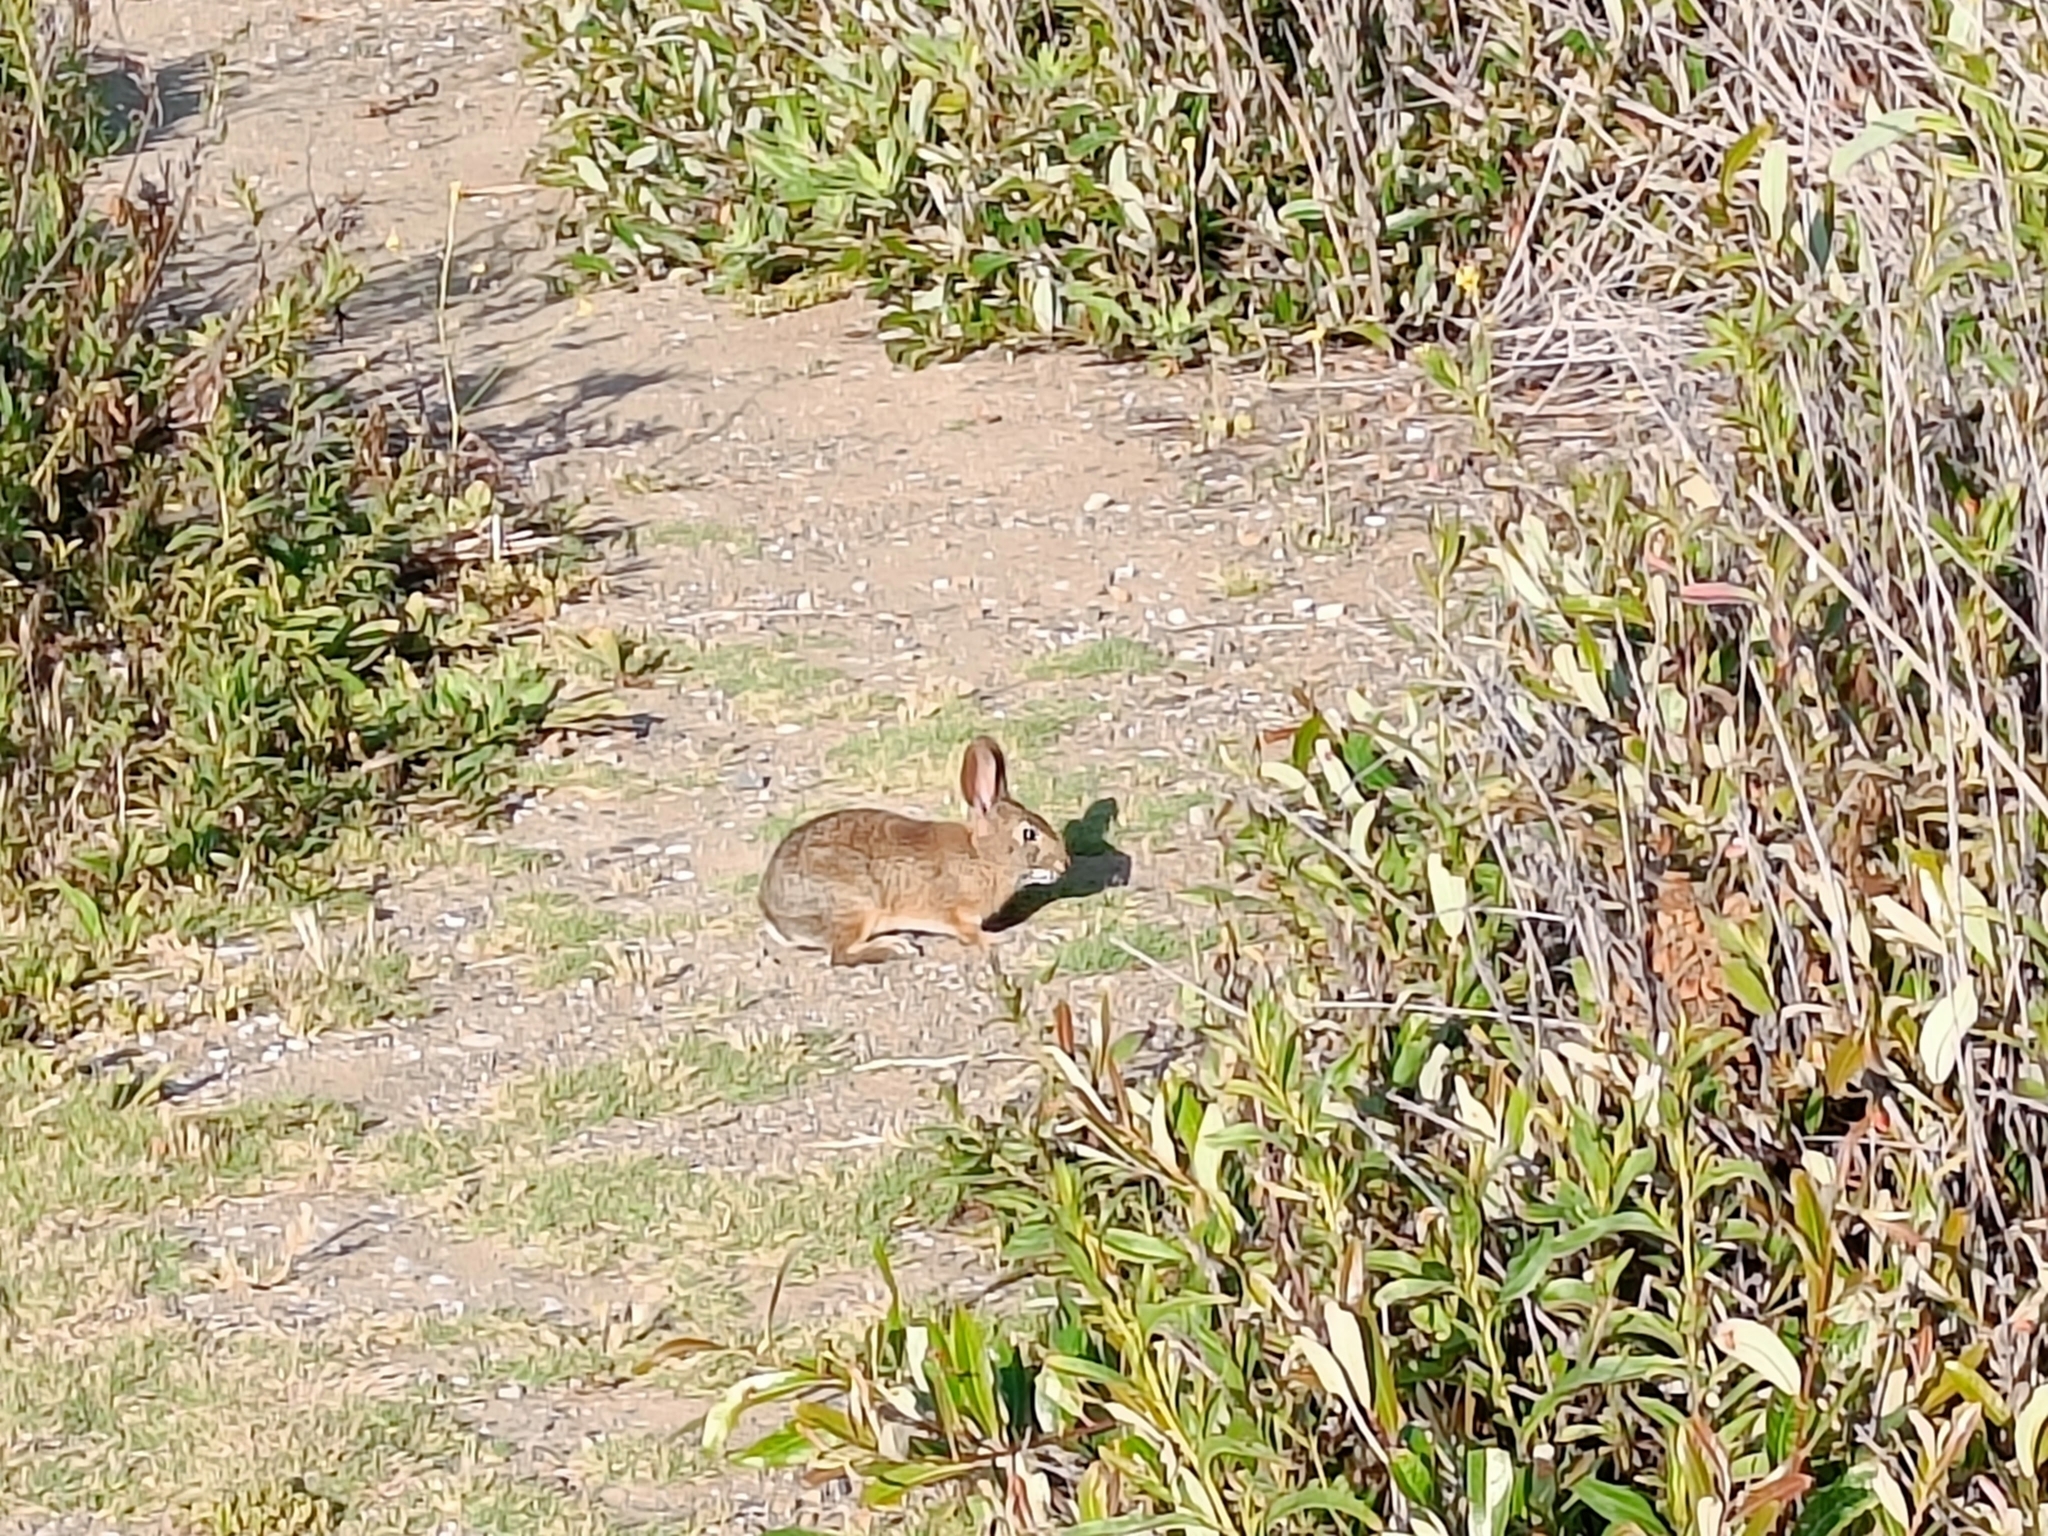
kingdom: Animalia
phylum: Chordata
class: Mammalia
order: Lagomorpha
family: Leporidae
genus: Sylvilagus
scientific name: Sylvilagus bachmani
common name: Brush rabbit
